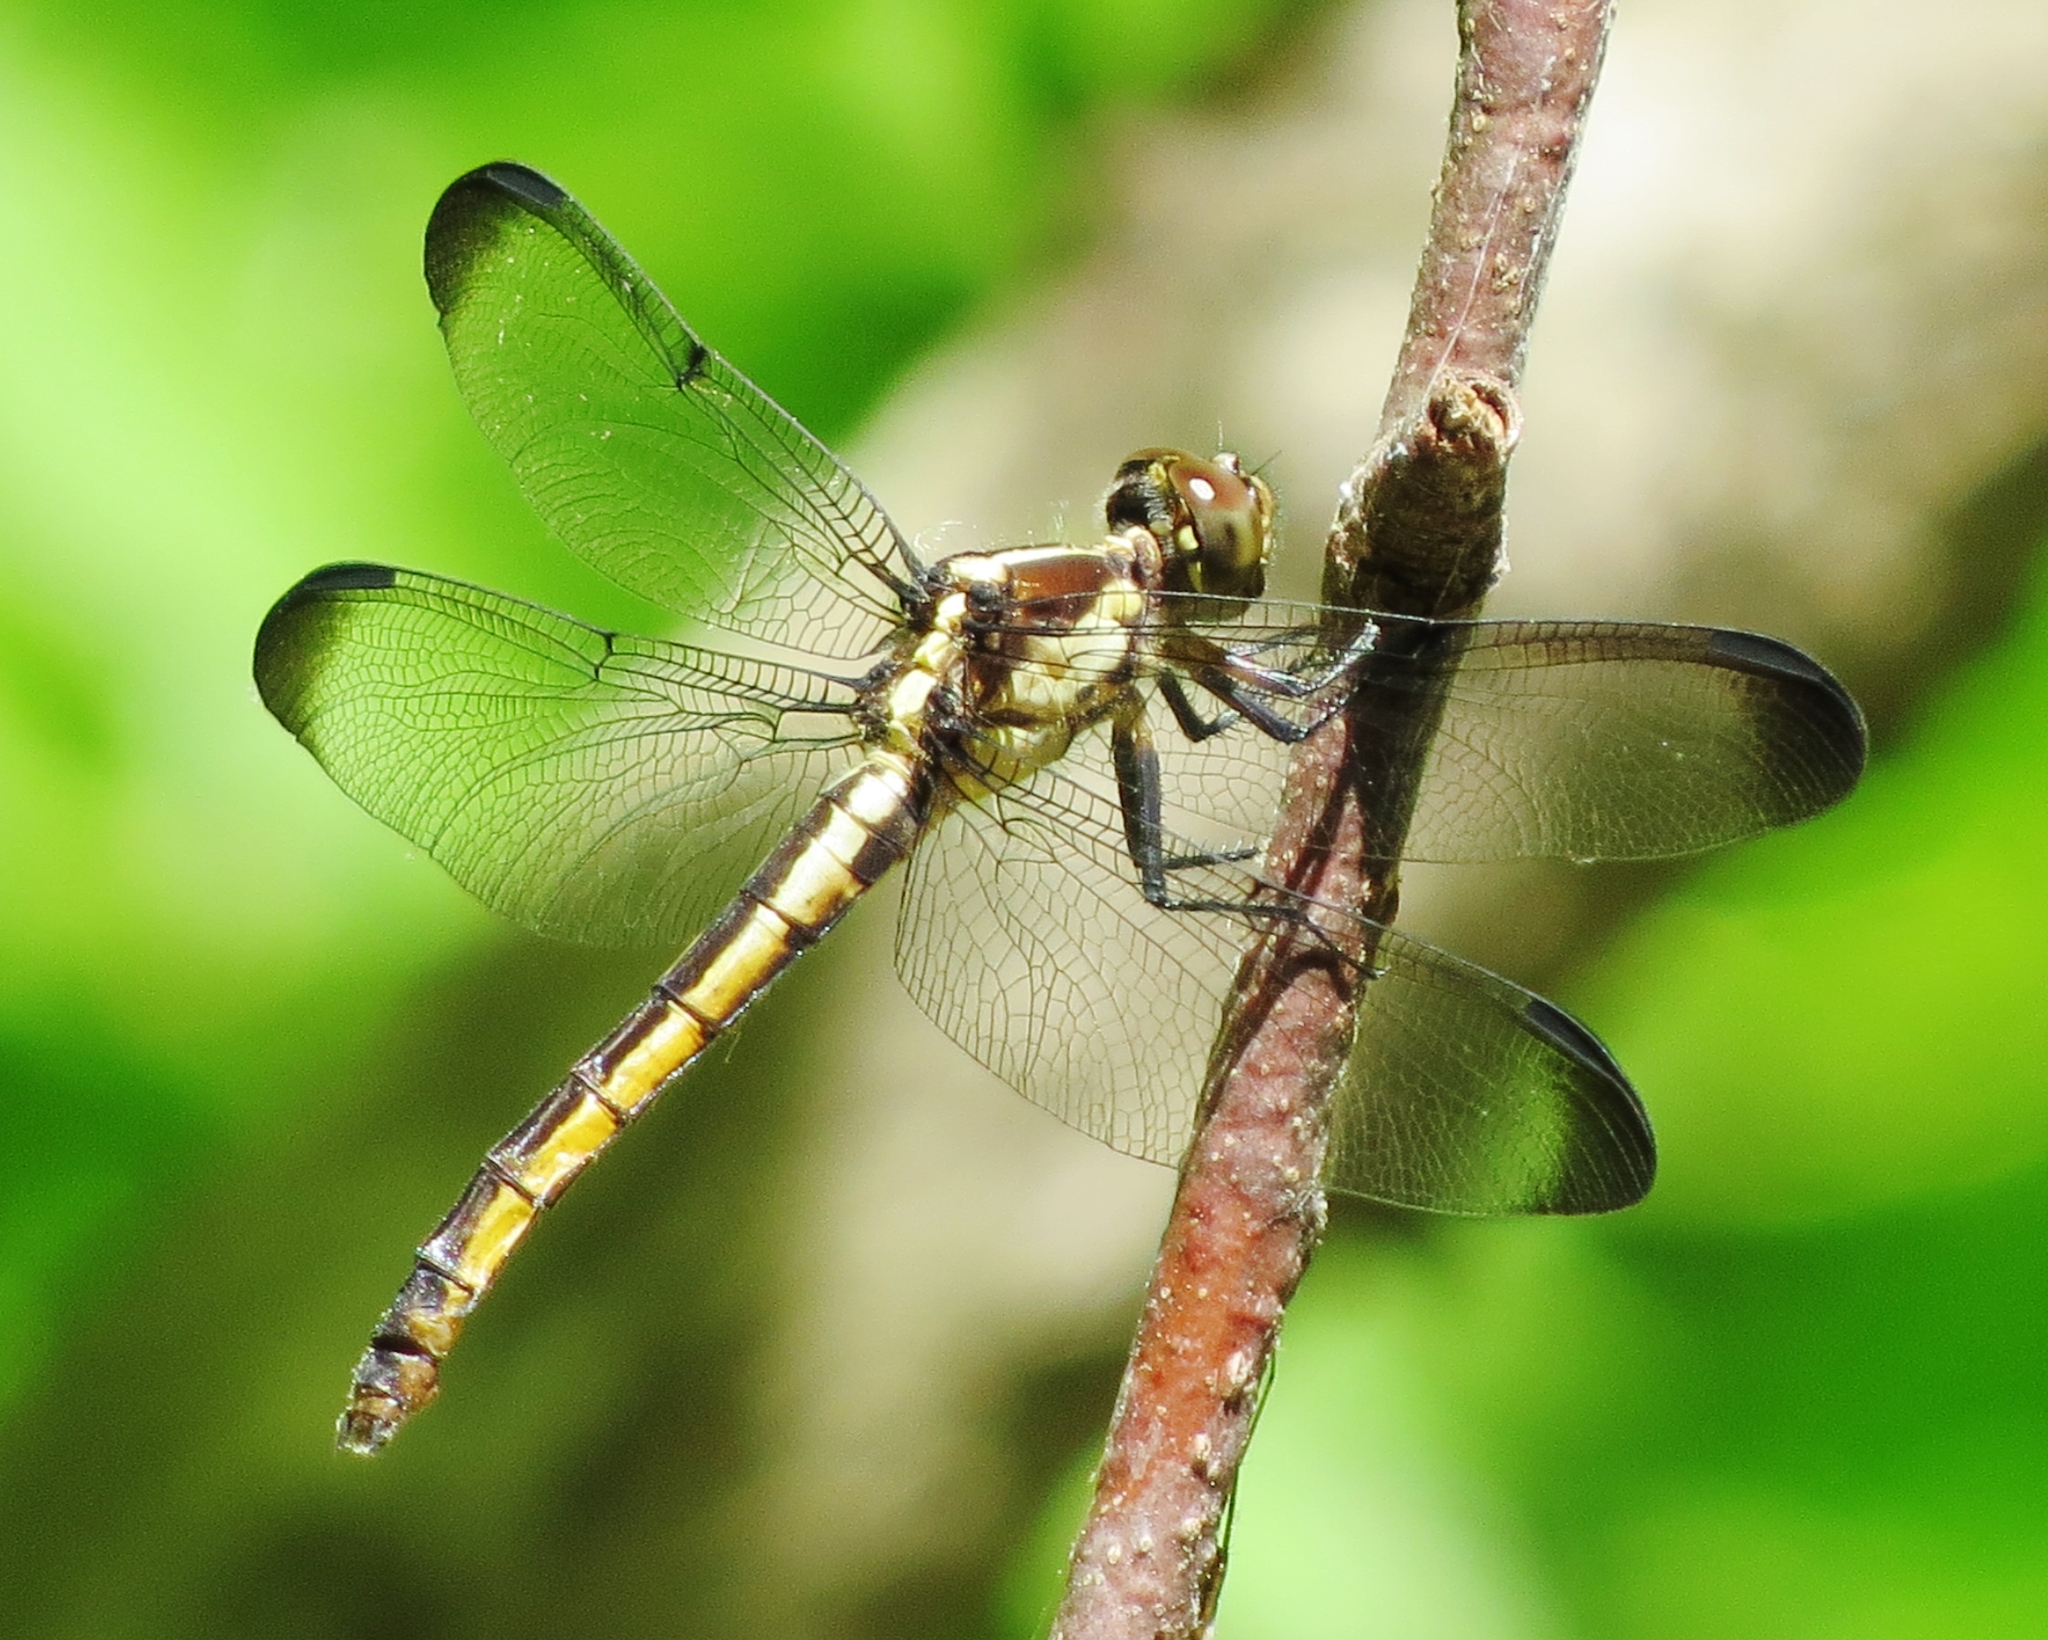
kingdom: Animalia
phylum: Arthropoda
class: Insecta
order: Odonata
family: Libellulidae
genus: Libellula
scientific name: Libellula incesta
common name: Slaty skimmer
